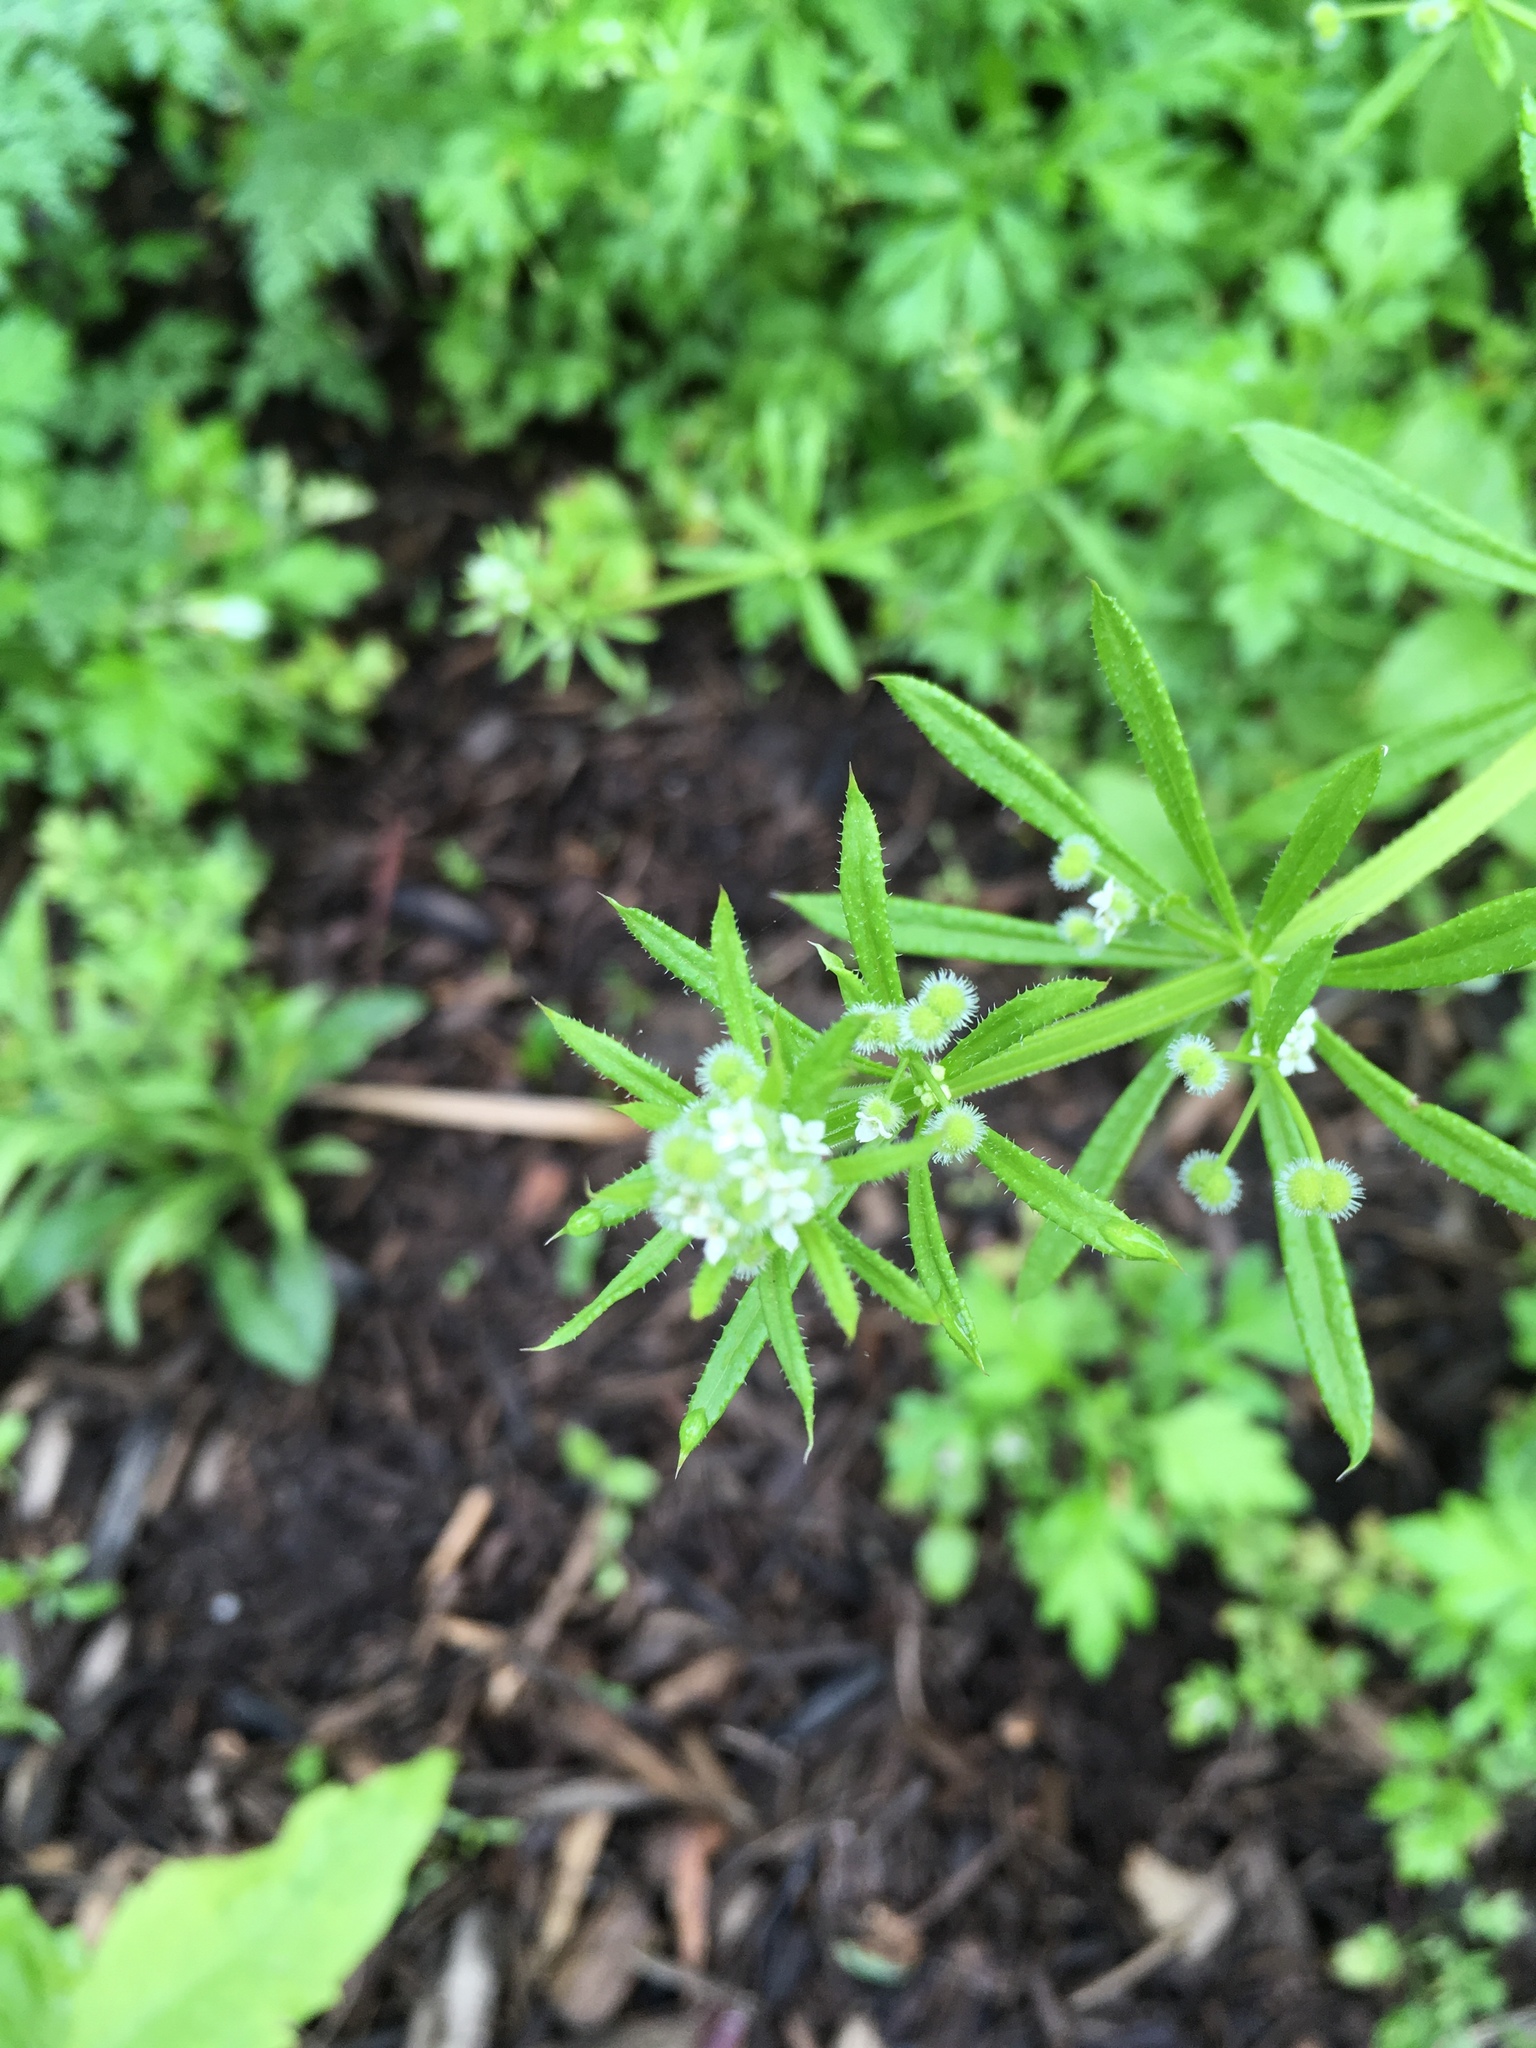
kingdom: Plantae
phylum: Tracheophyta
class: Magnoliopsida
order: Gentianales
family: Rubiaceae
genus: Galium
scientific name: Galium aparine
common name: Cleavers
